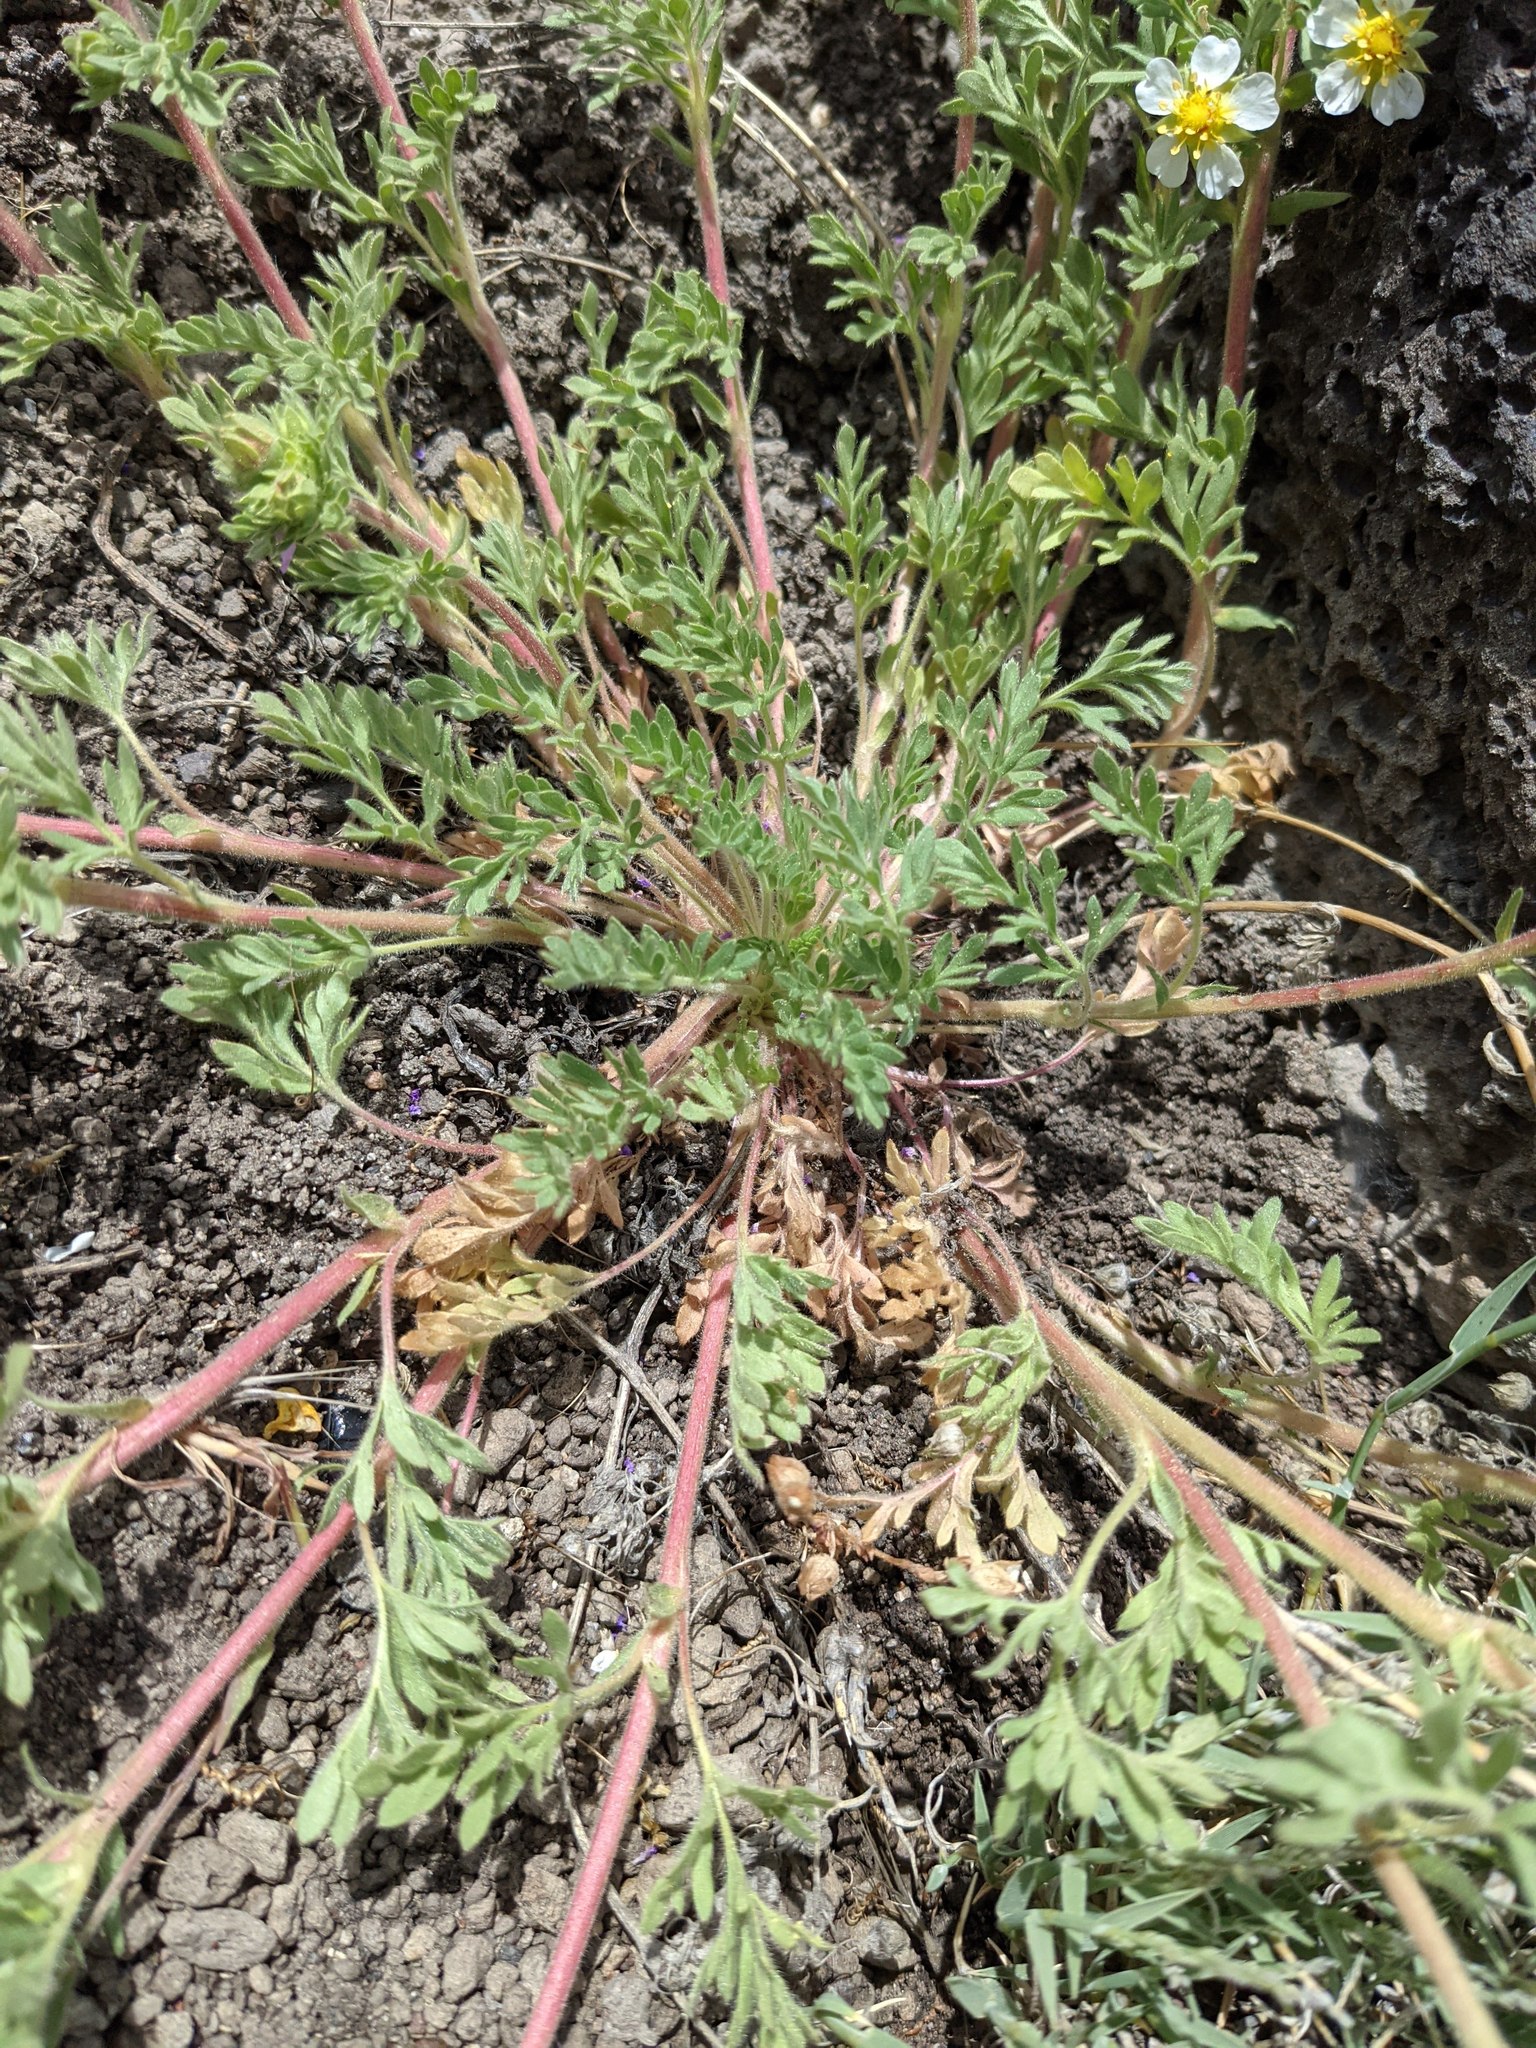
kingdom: Plantae
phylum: Tracheophyta
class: Magnoliopsida
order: Rosales
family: Rosaceae
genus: Potentilla
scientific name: Potentilla newberryi
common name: Newberry's cinquefoil
